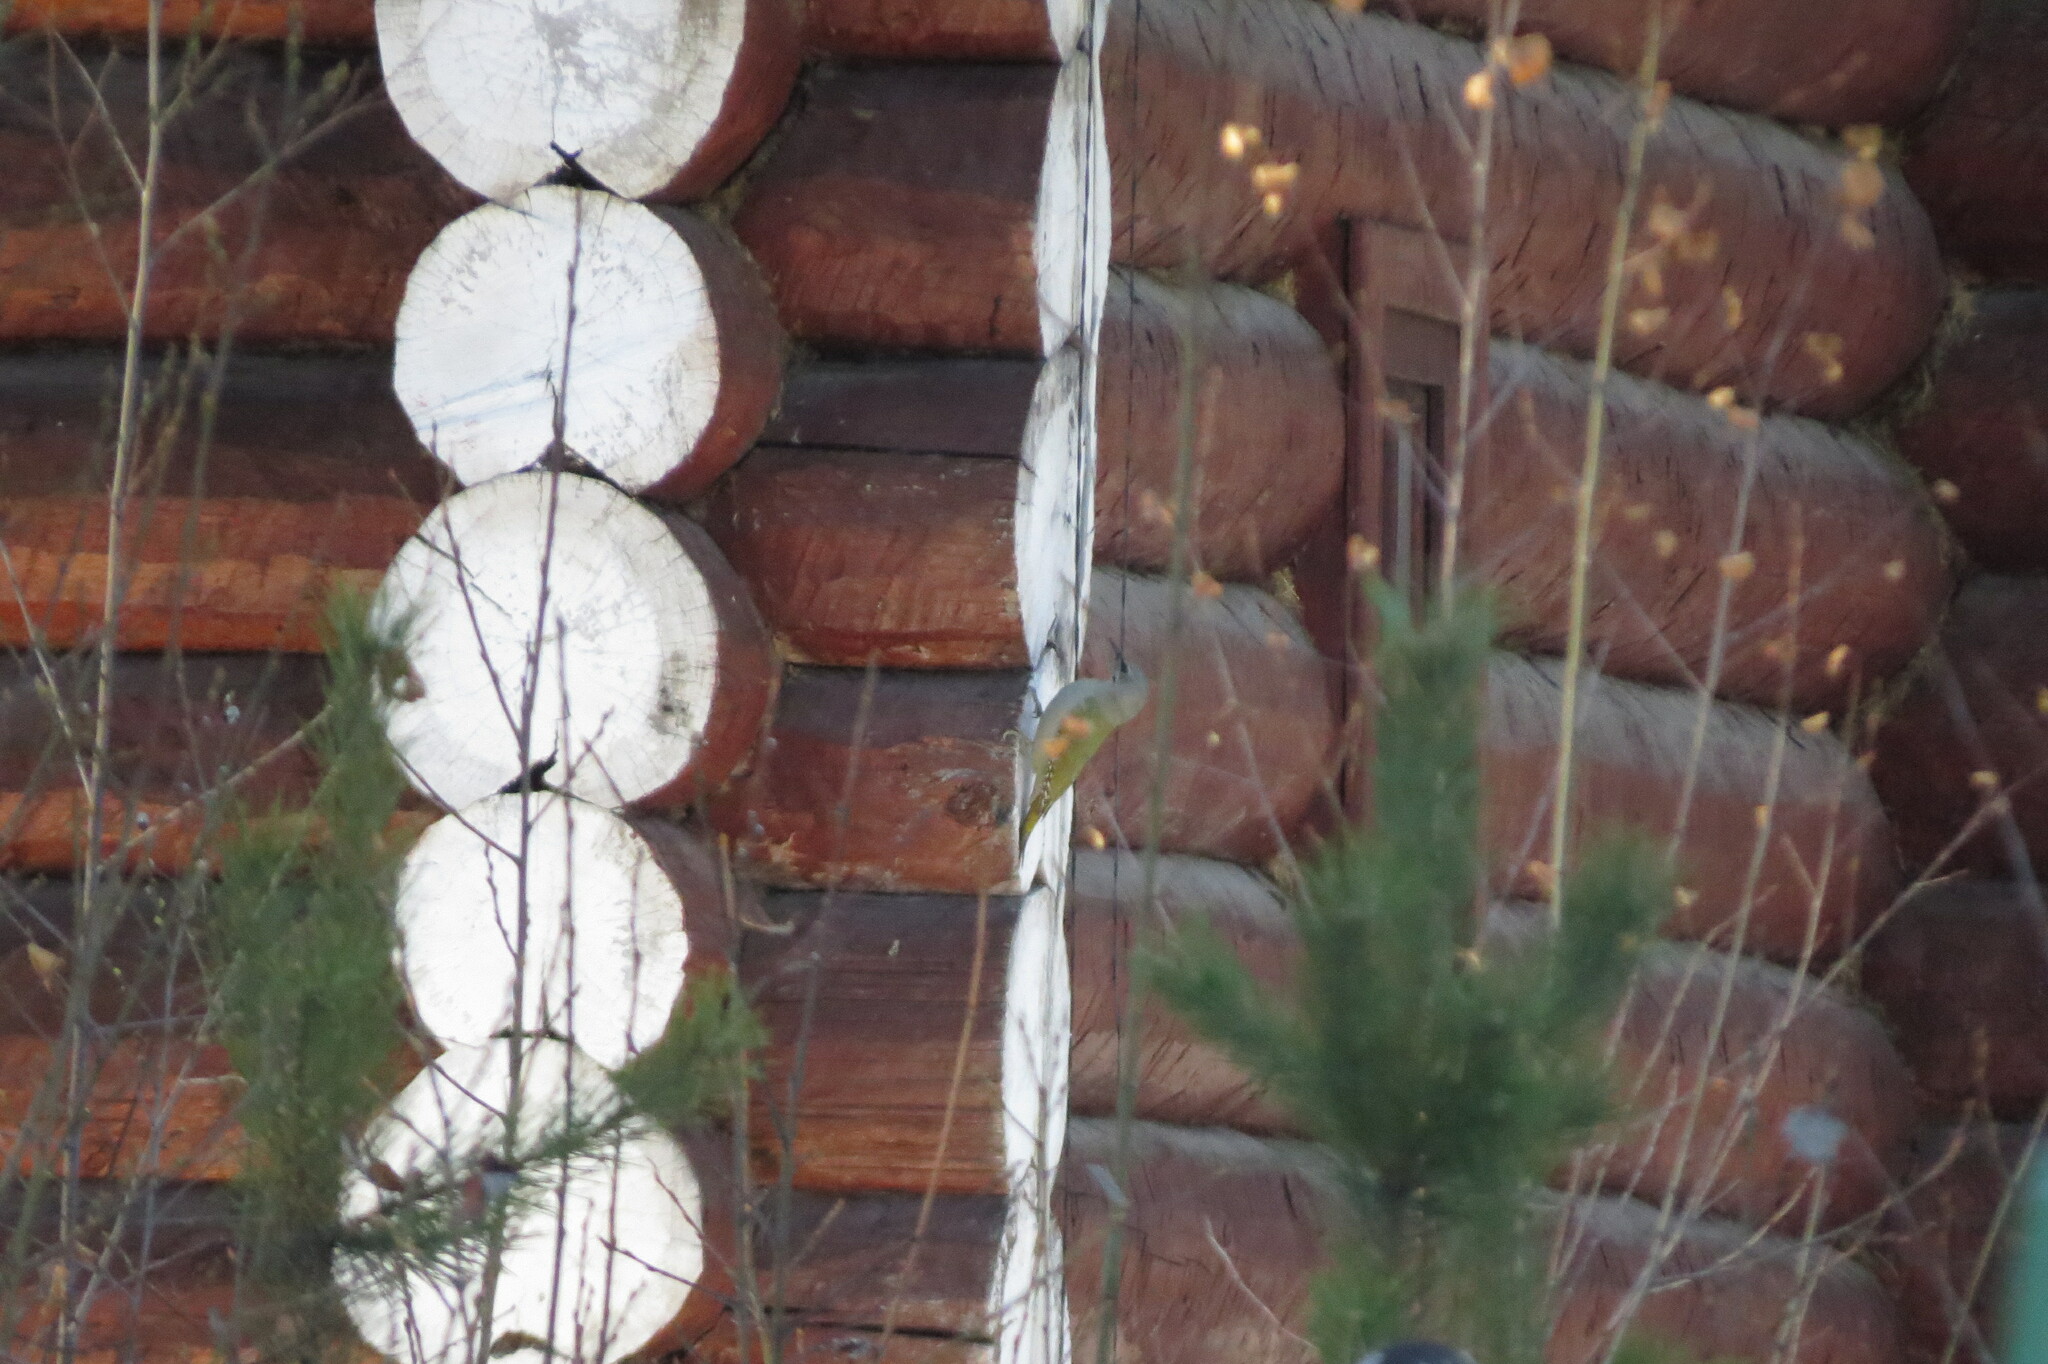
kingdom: Animalia
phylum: Chordata
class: Aves
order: Piciformes
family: Picidae
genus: Picus
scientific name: Picus canus
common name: Grey-headed woodpecker
